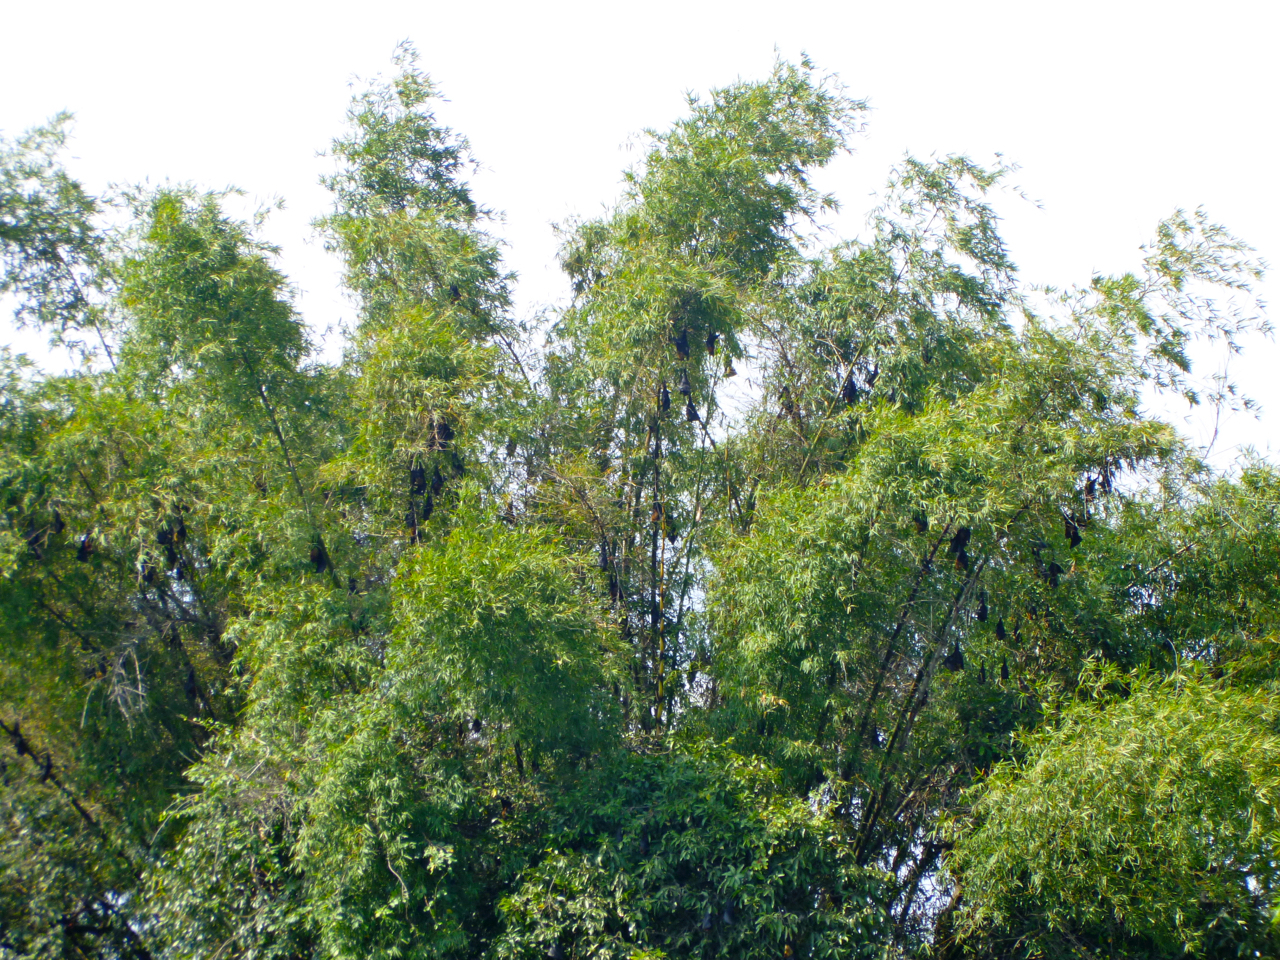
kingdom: Animalia
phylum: Chordata
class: Mammalia
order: Chiroptera
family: Pteropodidae
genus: Pteropus
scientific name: Pteropus vampyrus
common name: Large flying fox
